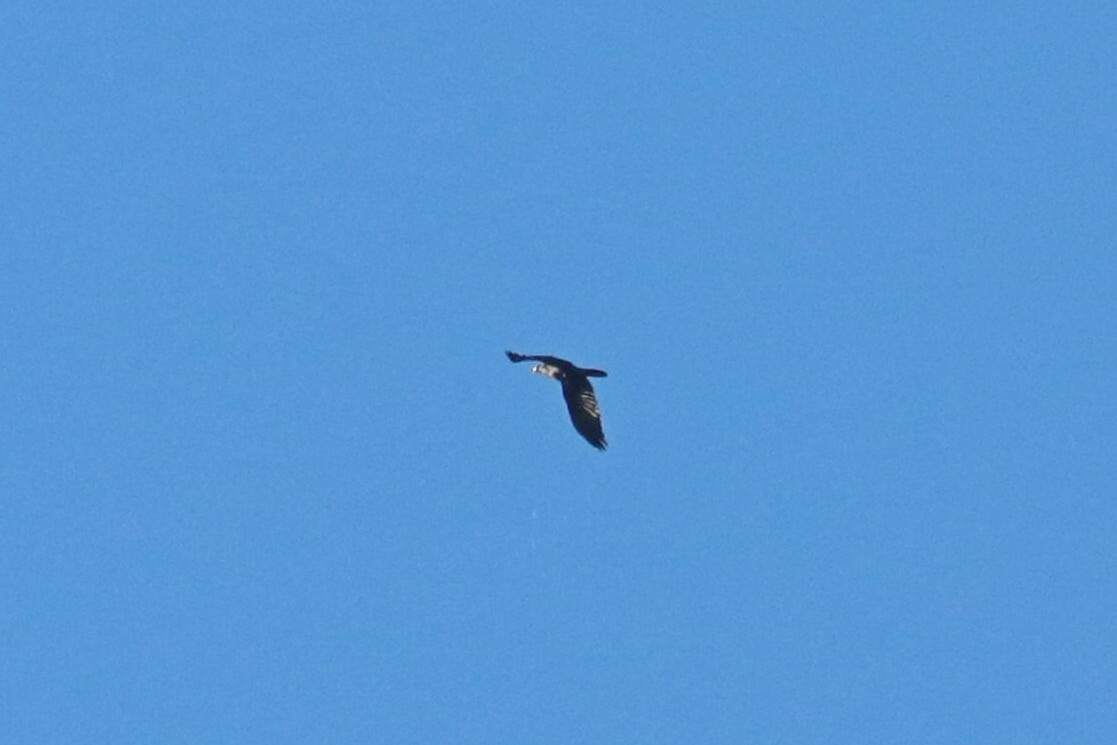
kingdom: Animalia
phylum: Chordata
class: Aves
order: Passeriformes
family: Corvidae
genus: Corvus
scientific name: Corvus corax
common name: Common raven
